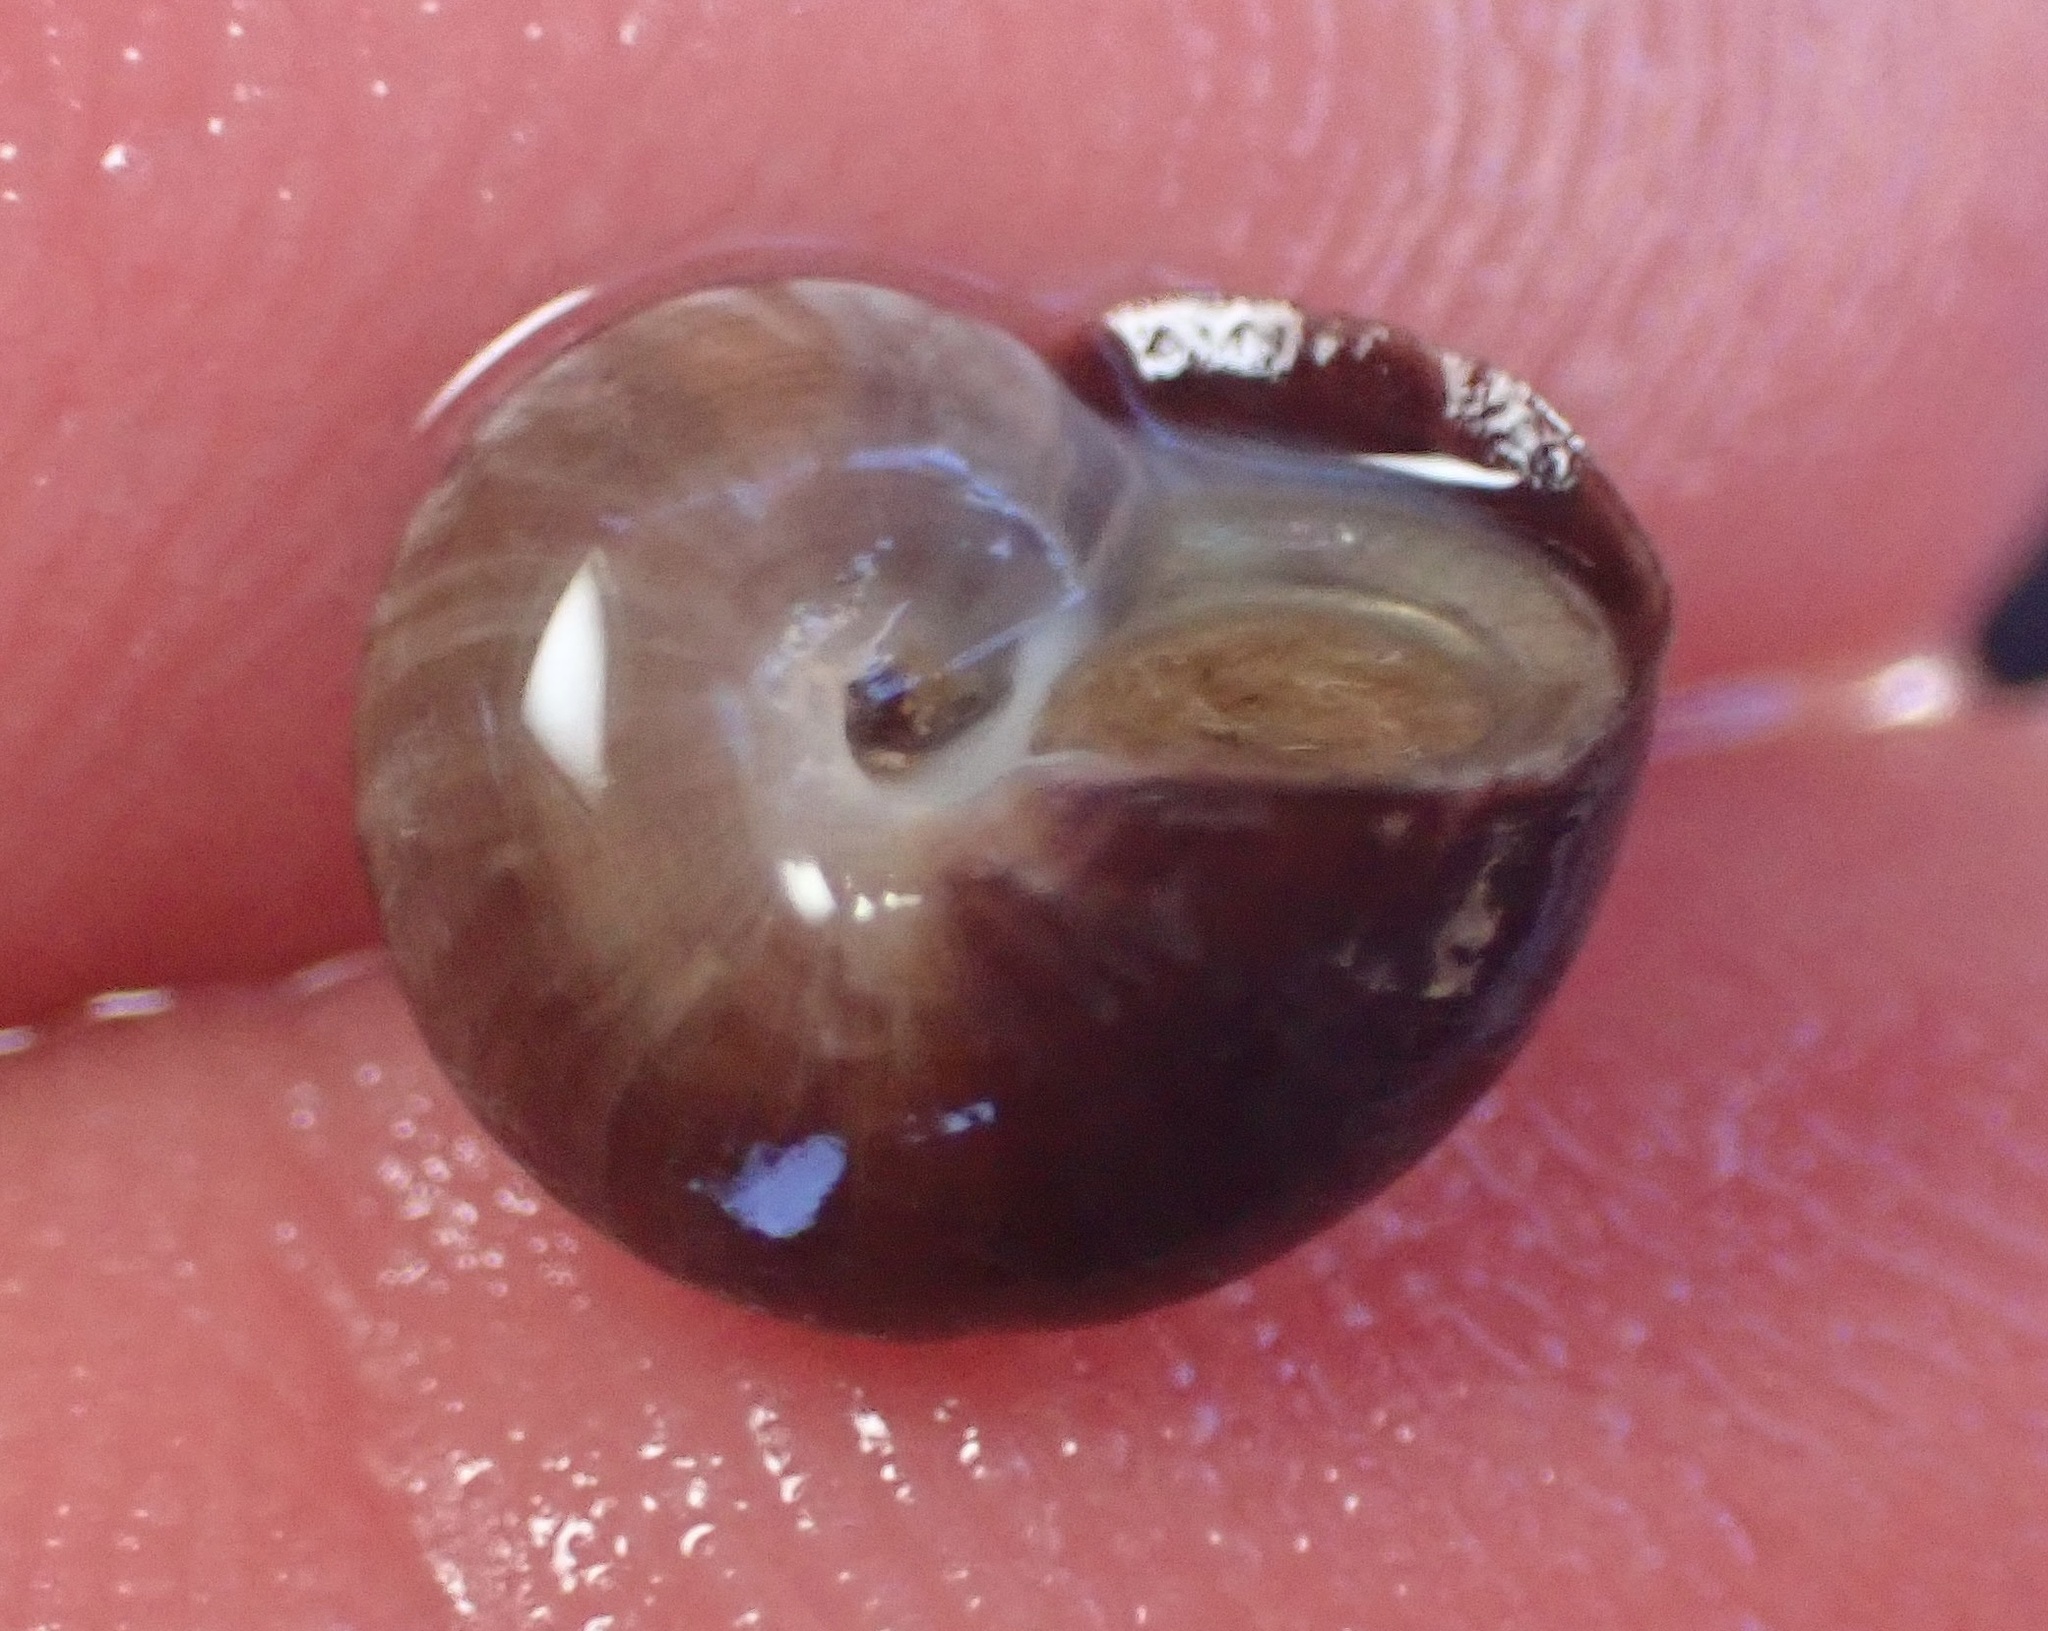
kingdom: Animalia
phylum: Mollusca
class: Gastropoda
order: Trochida
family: Tegulidae
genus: Norrisia
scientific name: Norrisia norrisii
